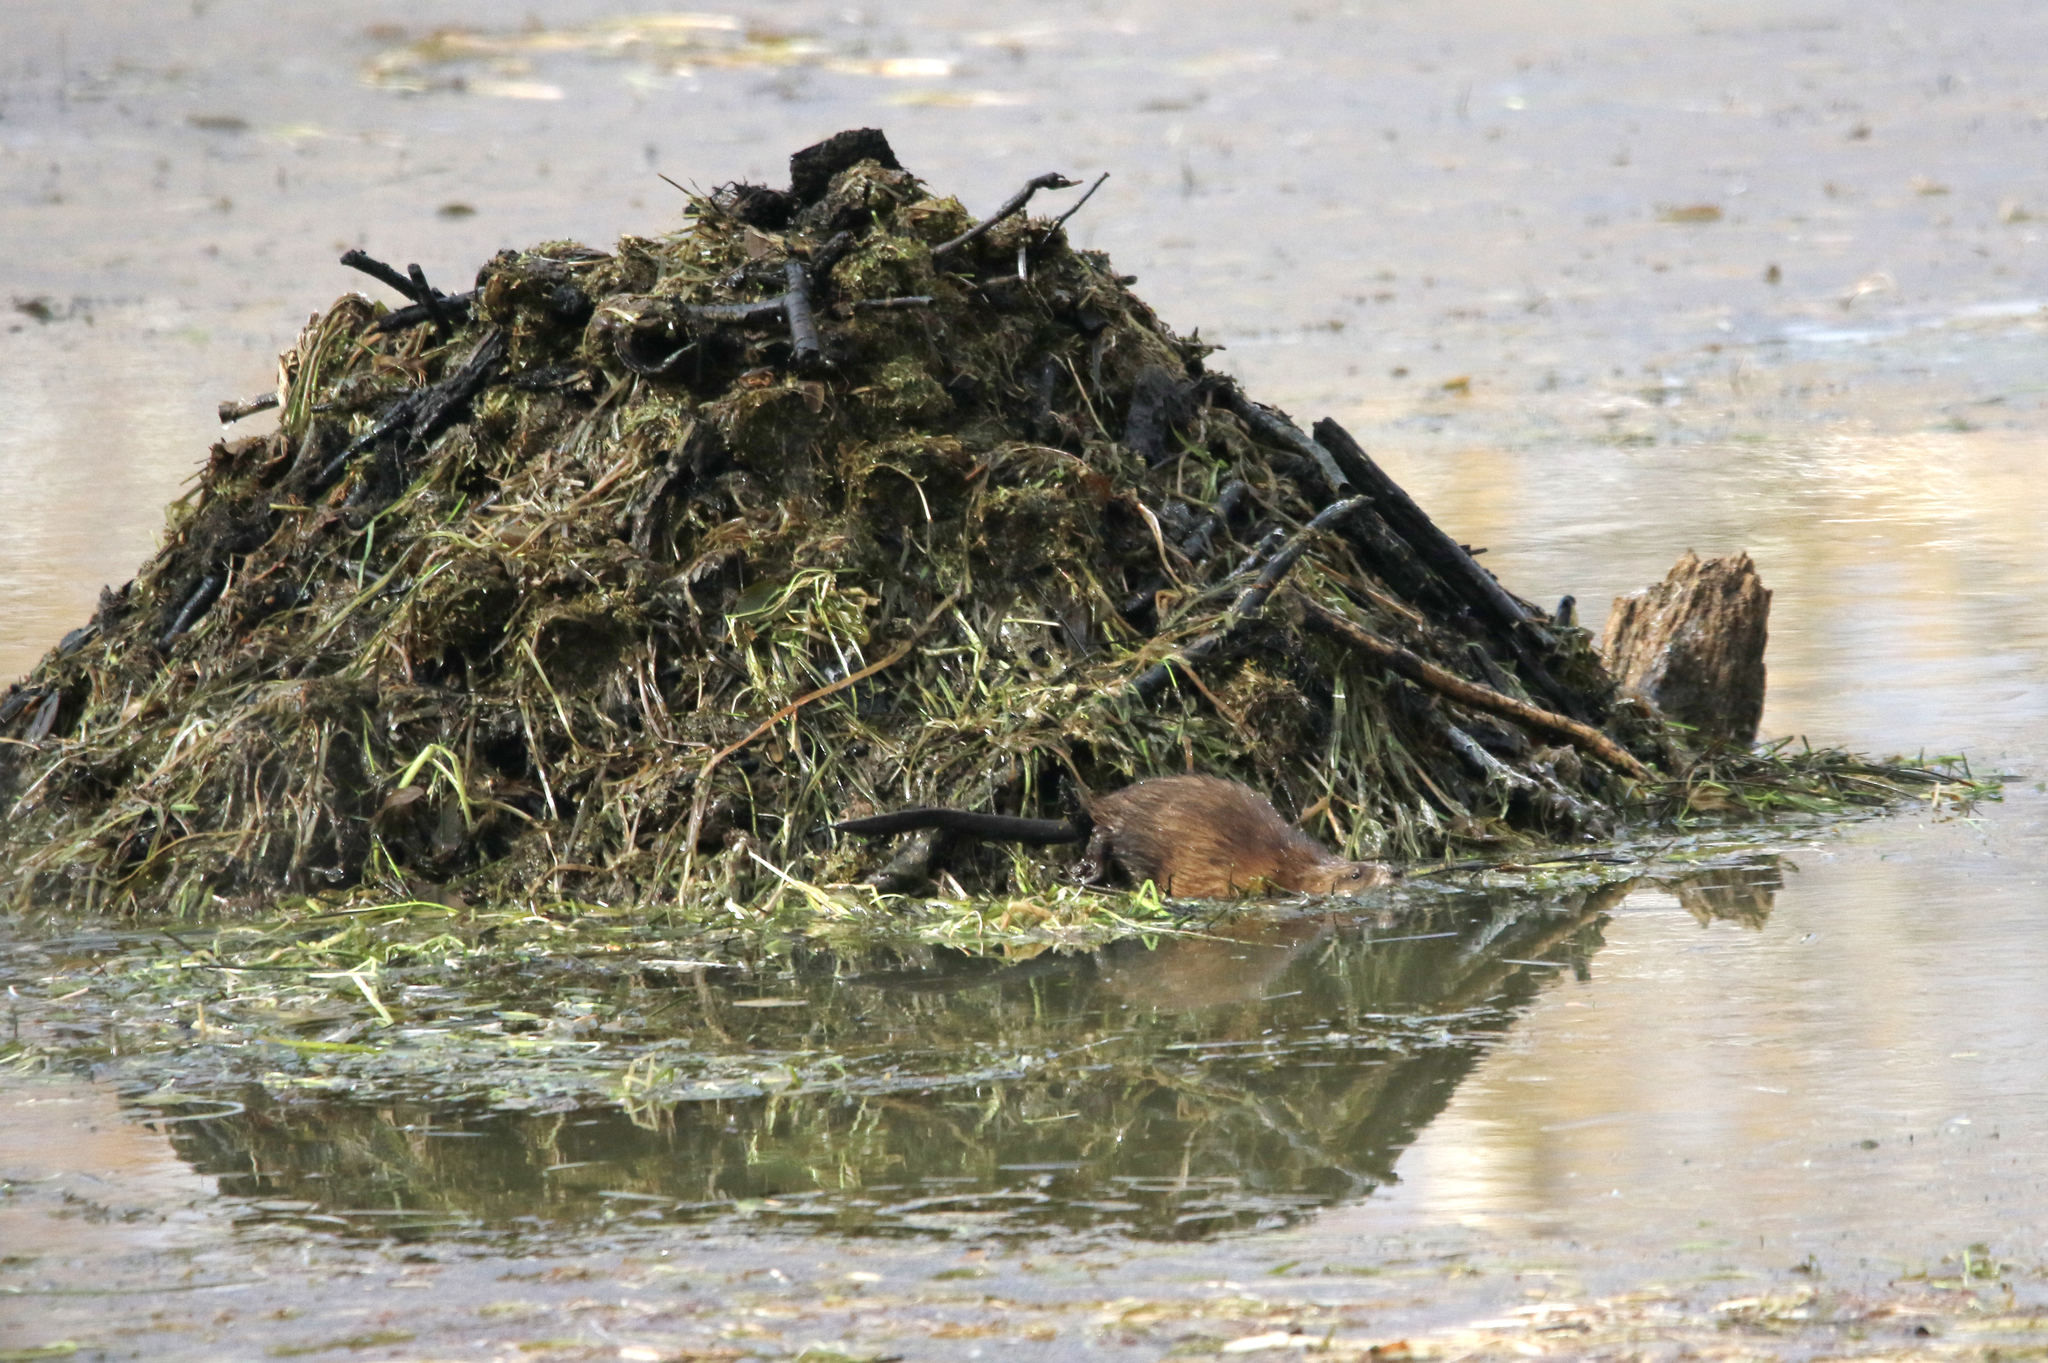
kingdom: Animalia
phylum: Chordata
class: Mammalia
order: Rodentia
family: Cricetidae
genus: Ondatra
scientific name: Ondatra zibethicus
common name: Muskrat
